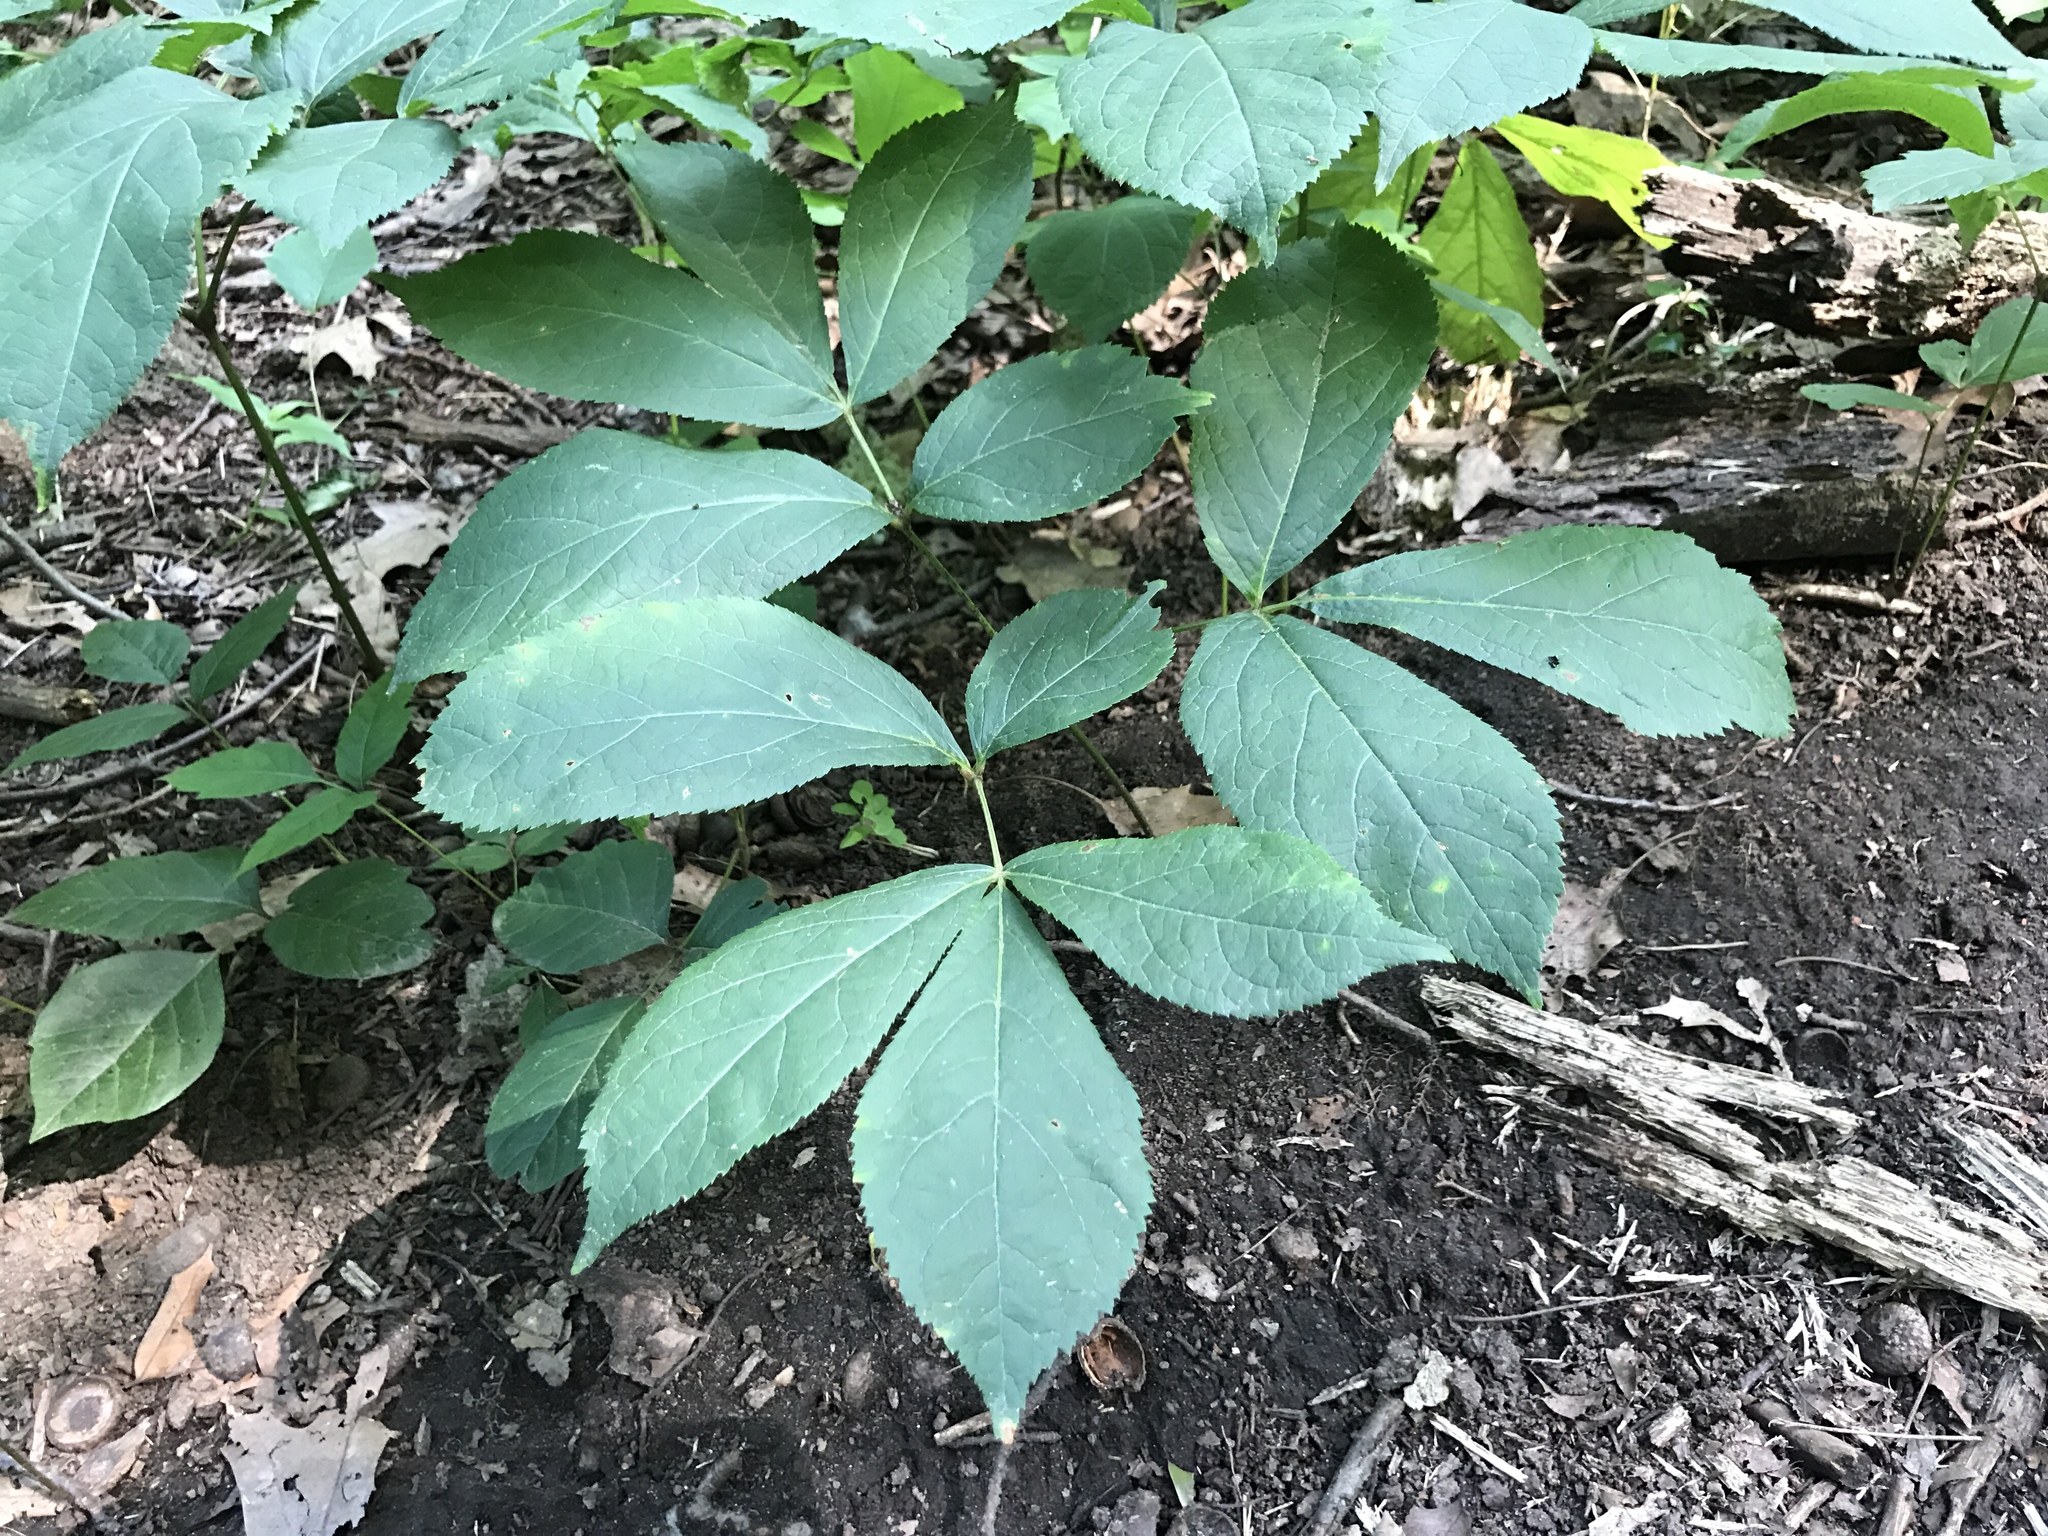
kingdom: Plantae
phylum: Tracheophyta
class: Magnoliopsida
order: Apiales
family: Araliaceae
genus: Aralia
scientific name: Aralia nudicaulis
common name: Wild sarsaparilla
